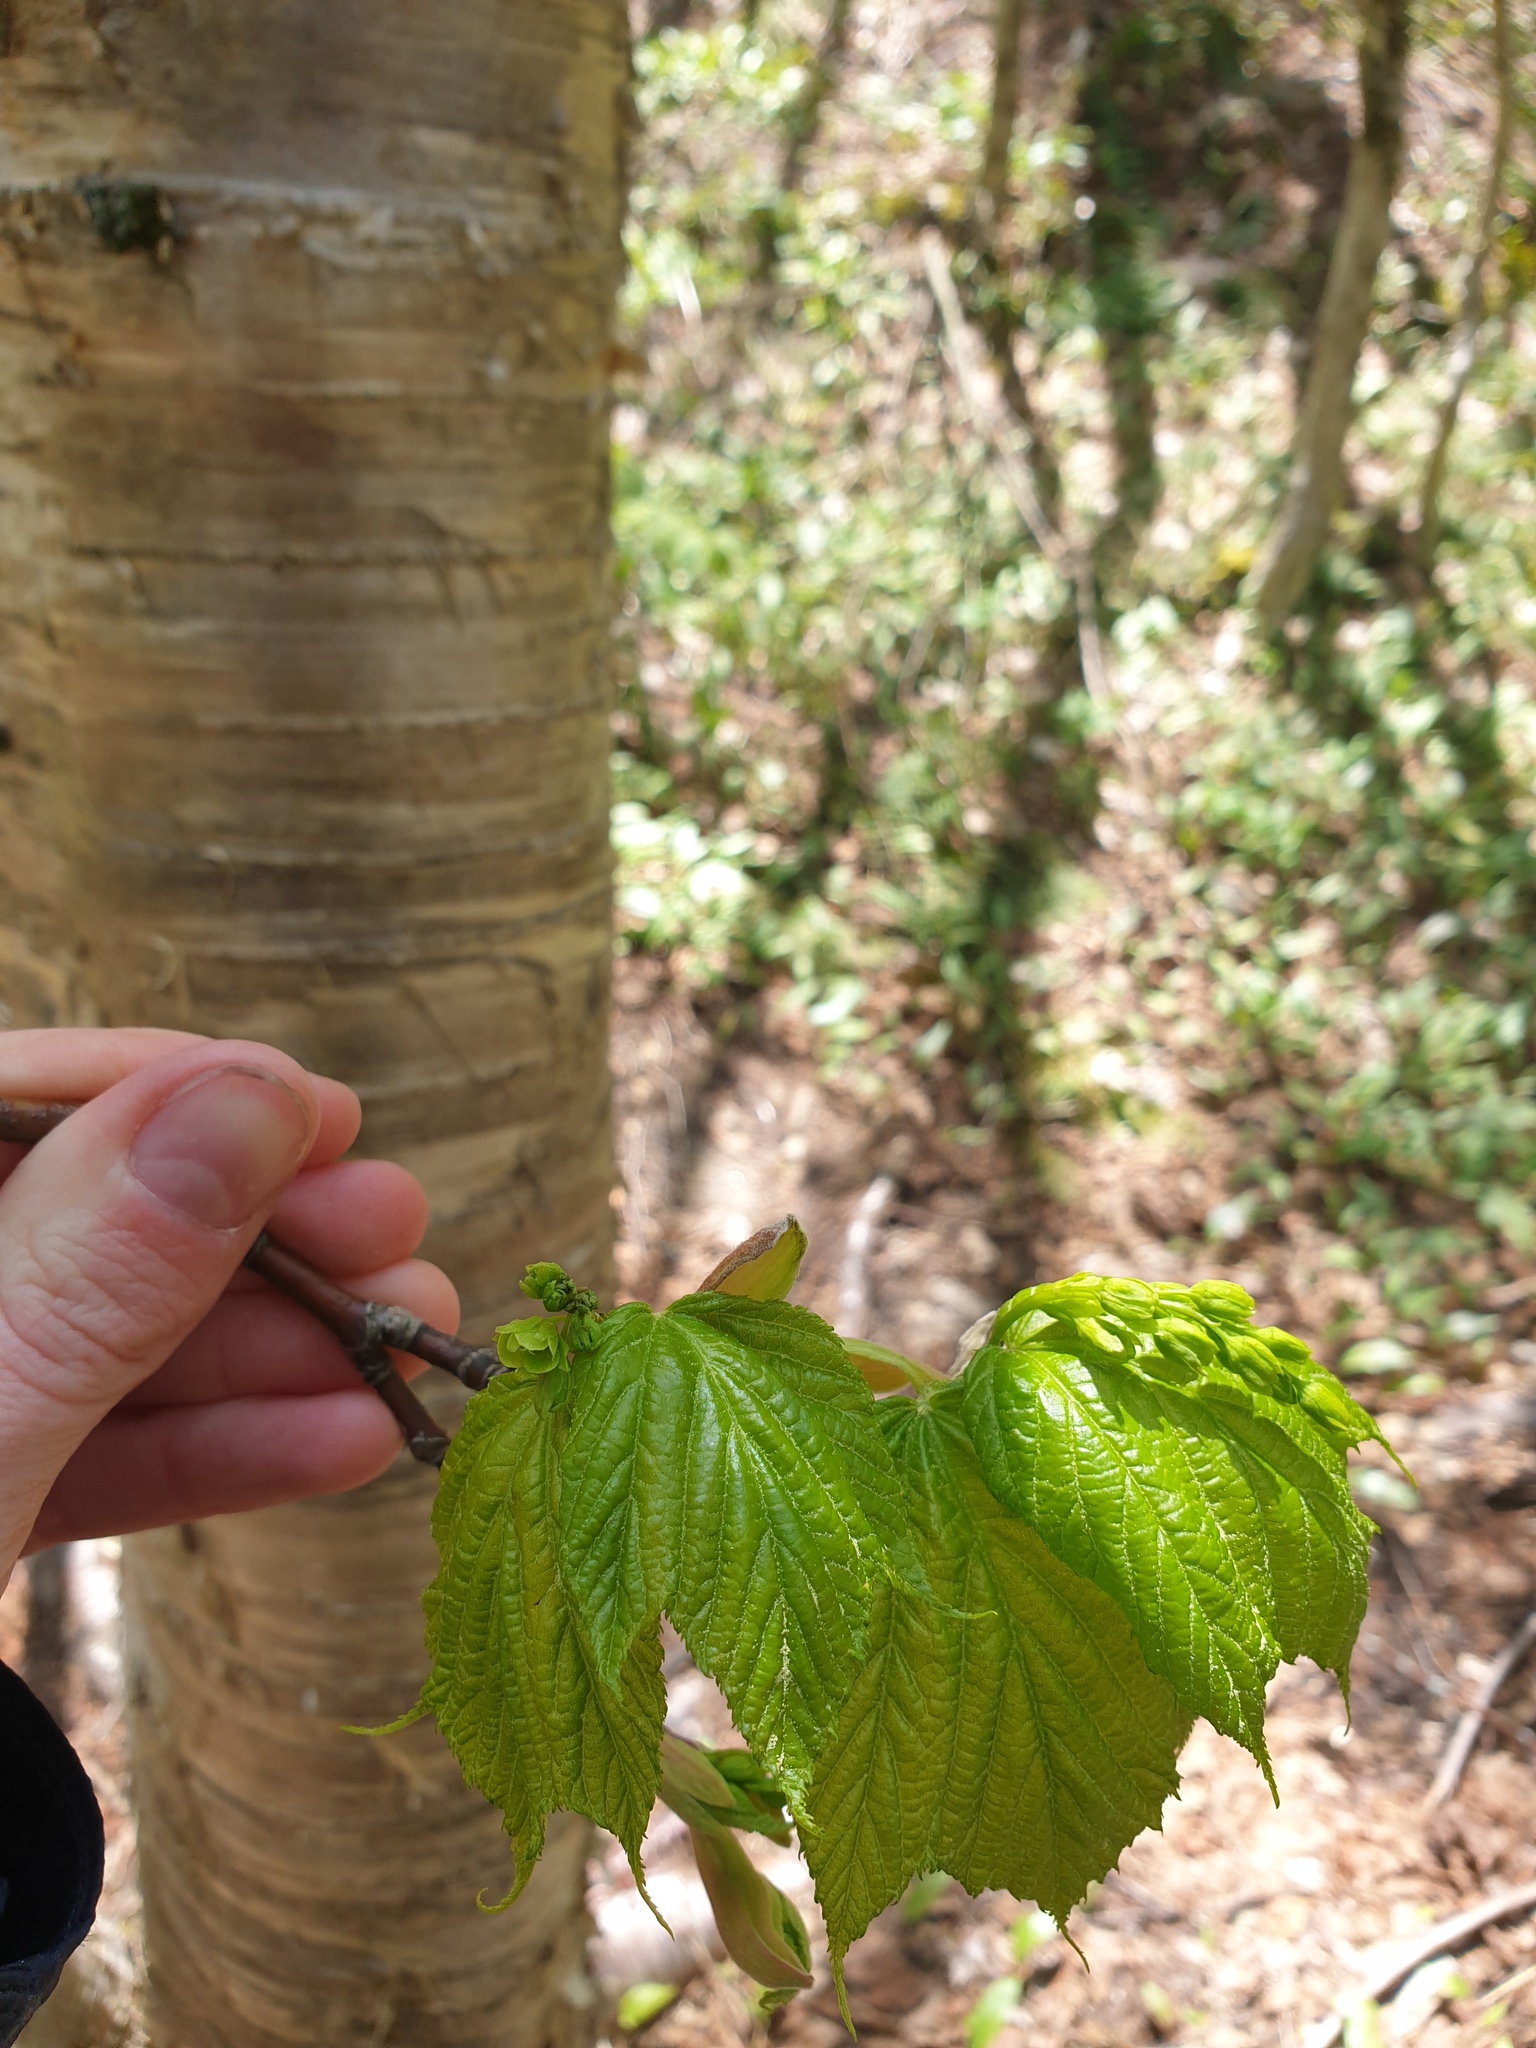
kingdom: Plantae
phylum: Tracheophyta
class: Magnoliopsida
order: Sapindales
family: Sapindaceae
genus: Acer
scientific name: Acer pensylvanicum
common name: Moosewood
